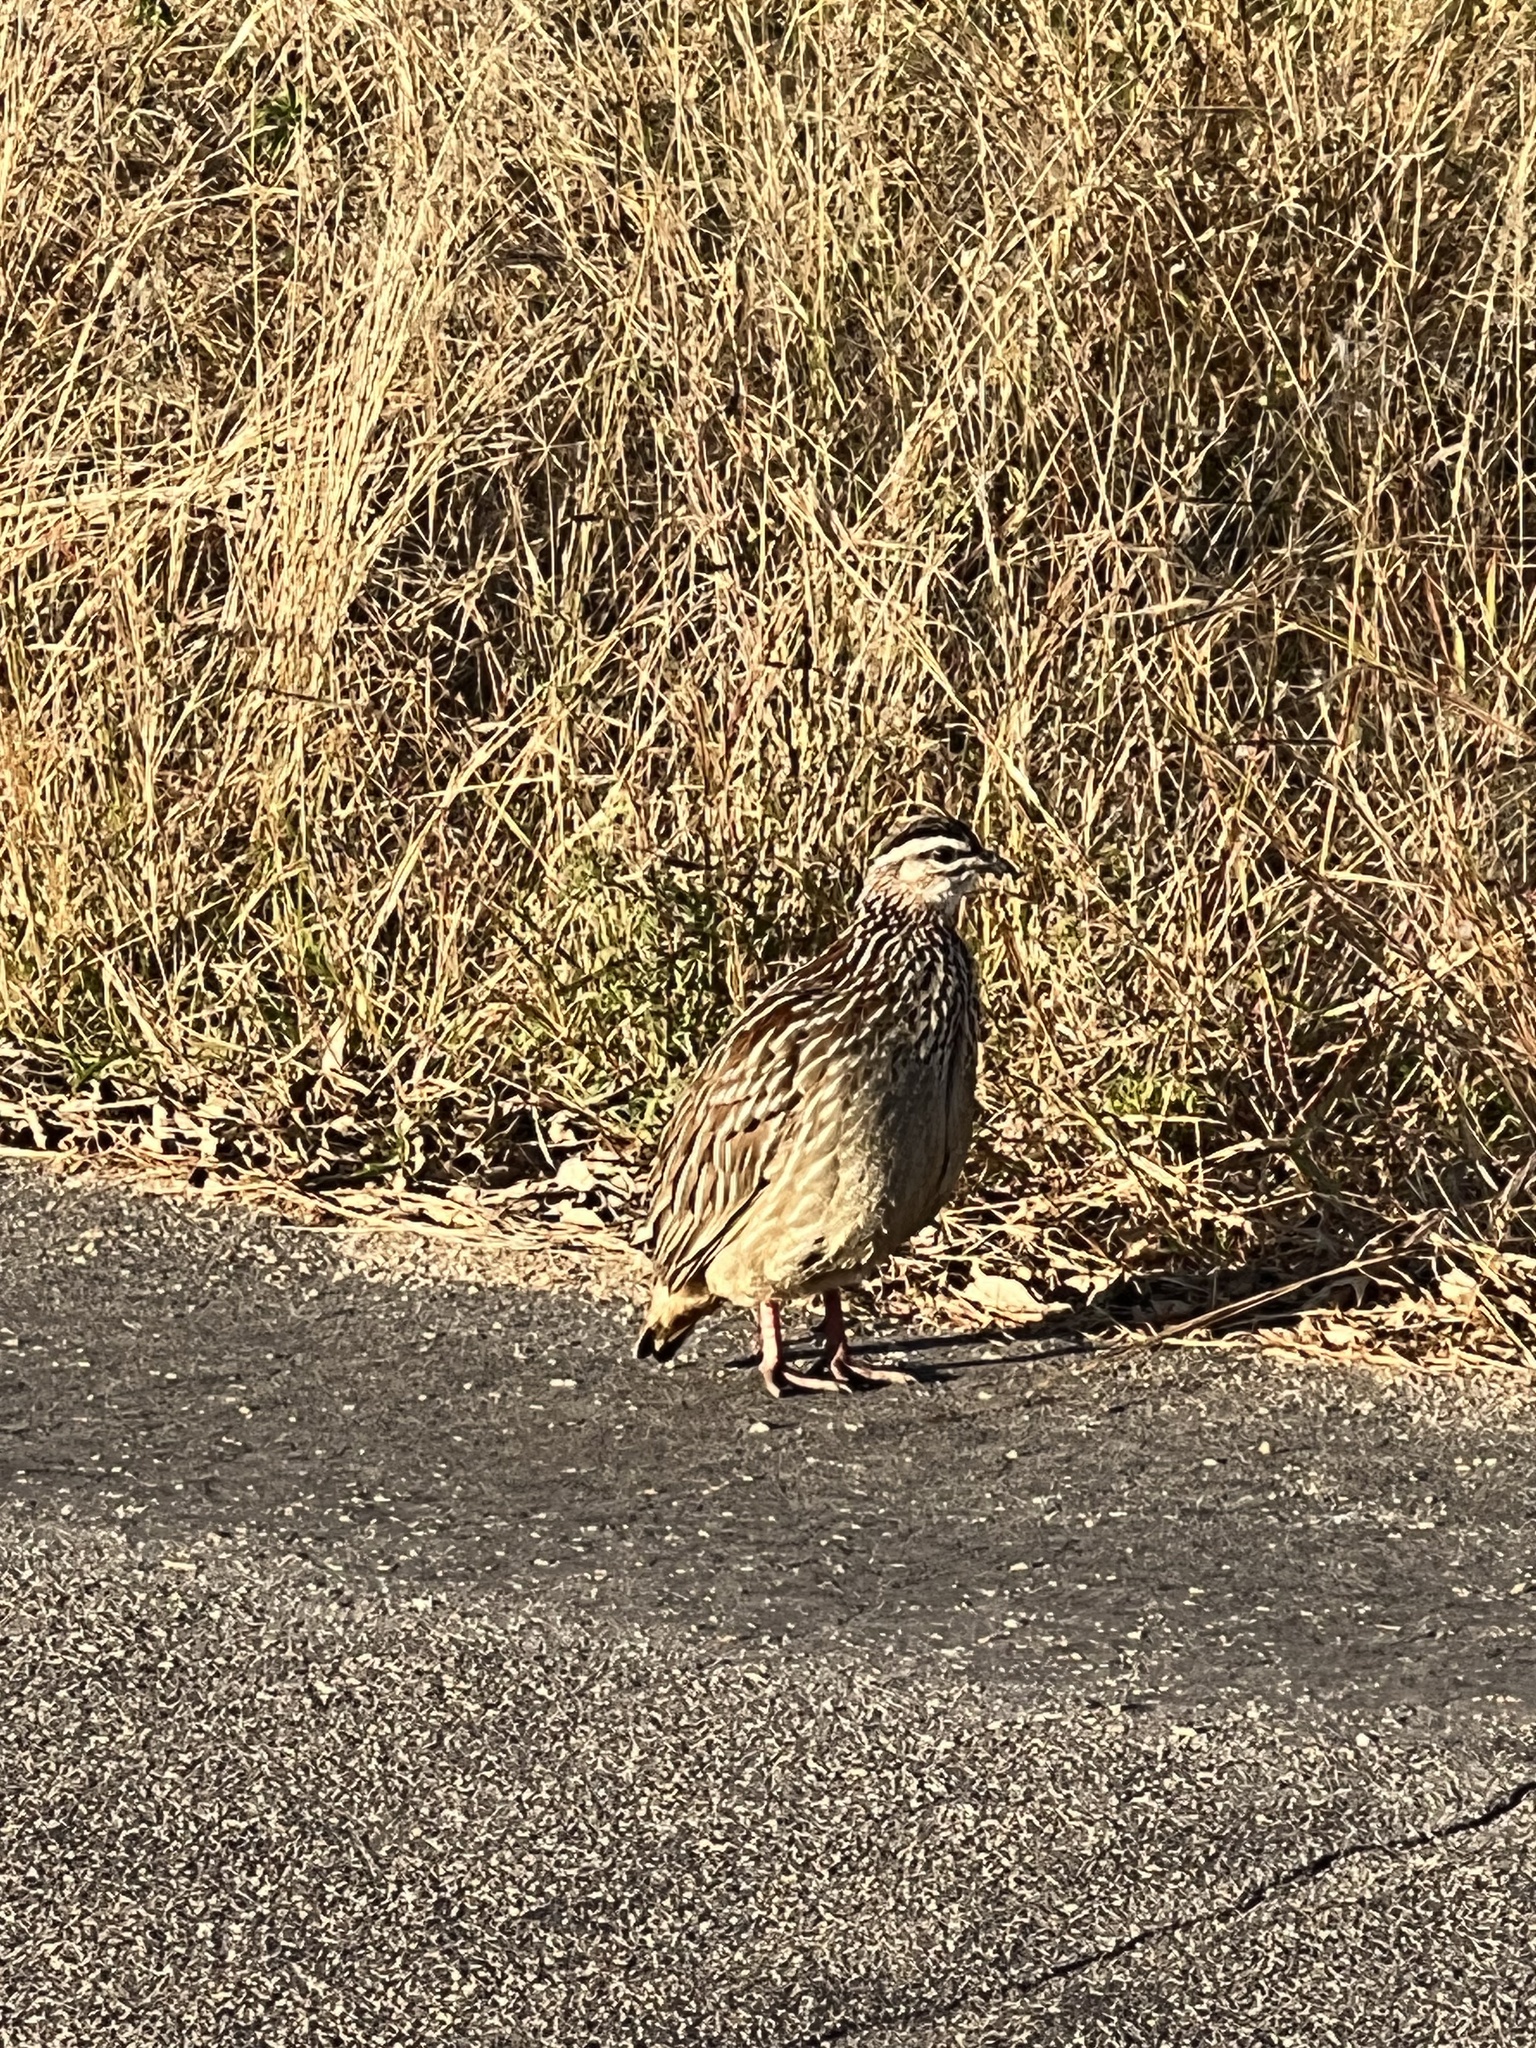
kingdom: Animalia
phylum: Chordata
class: Aves
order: Galliformes
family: Phasianidae
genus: Ortygornis
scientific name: Ortygornis sephaena
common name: Crested francolin
